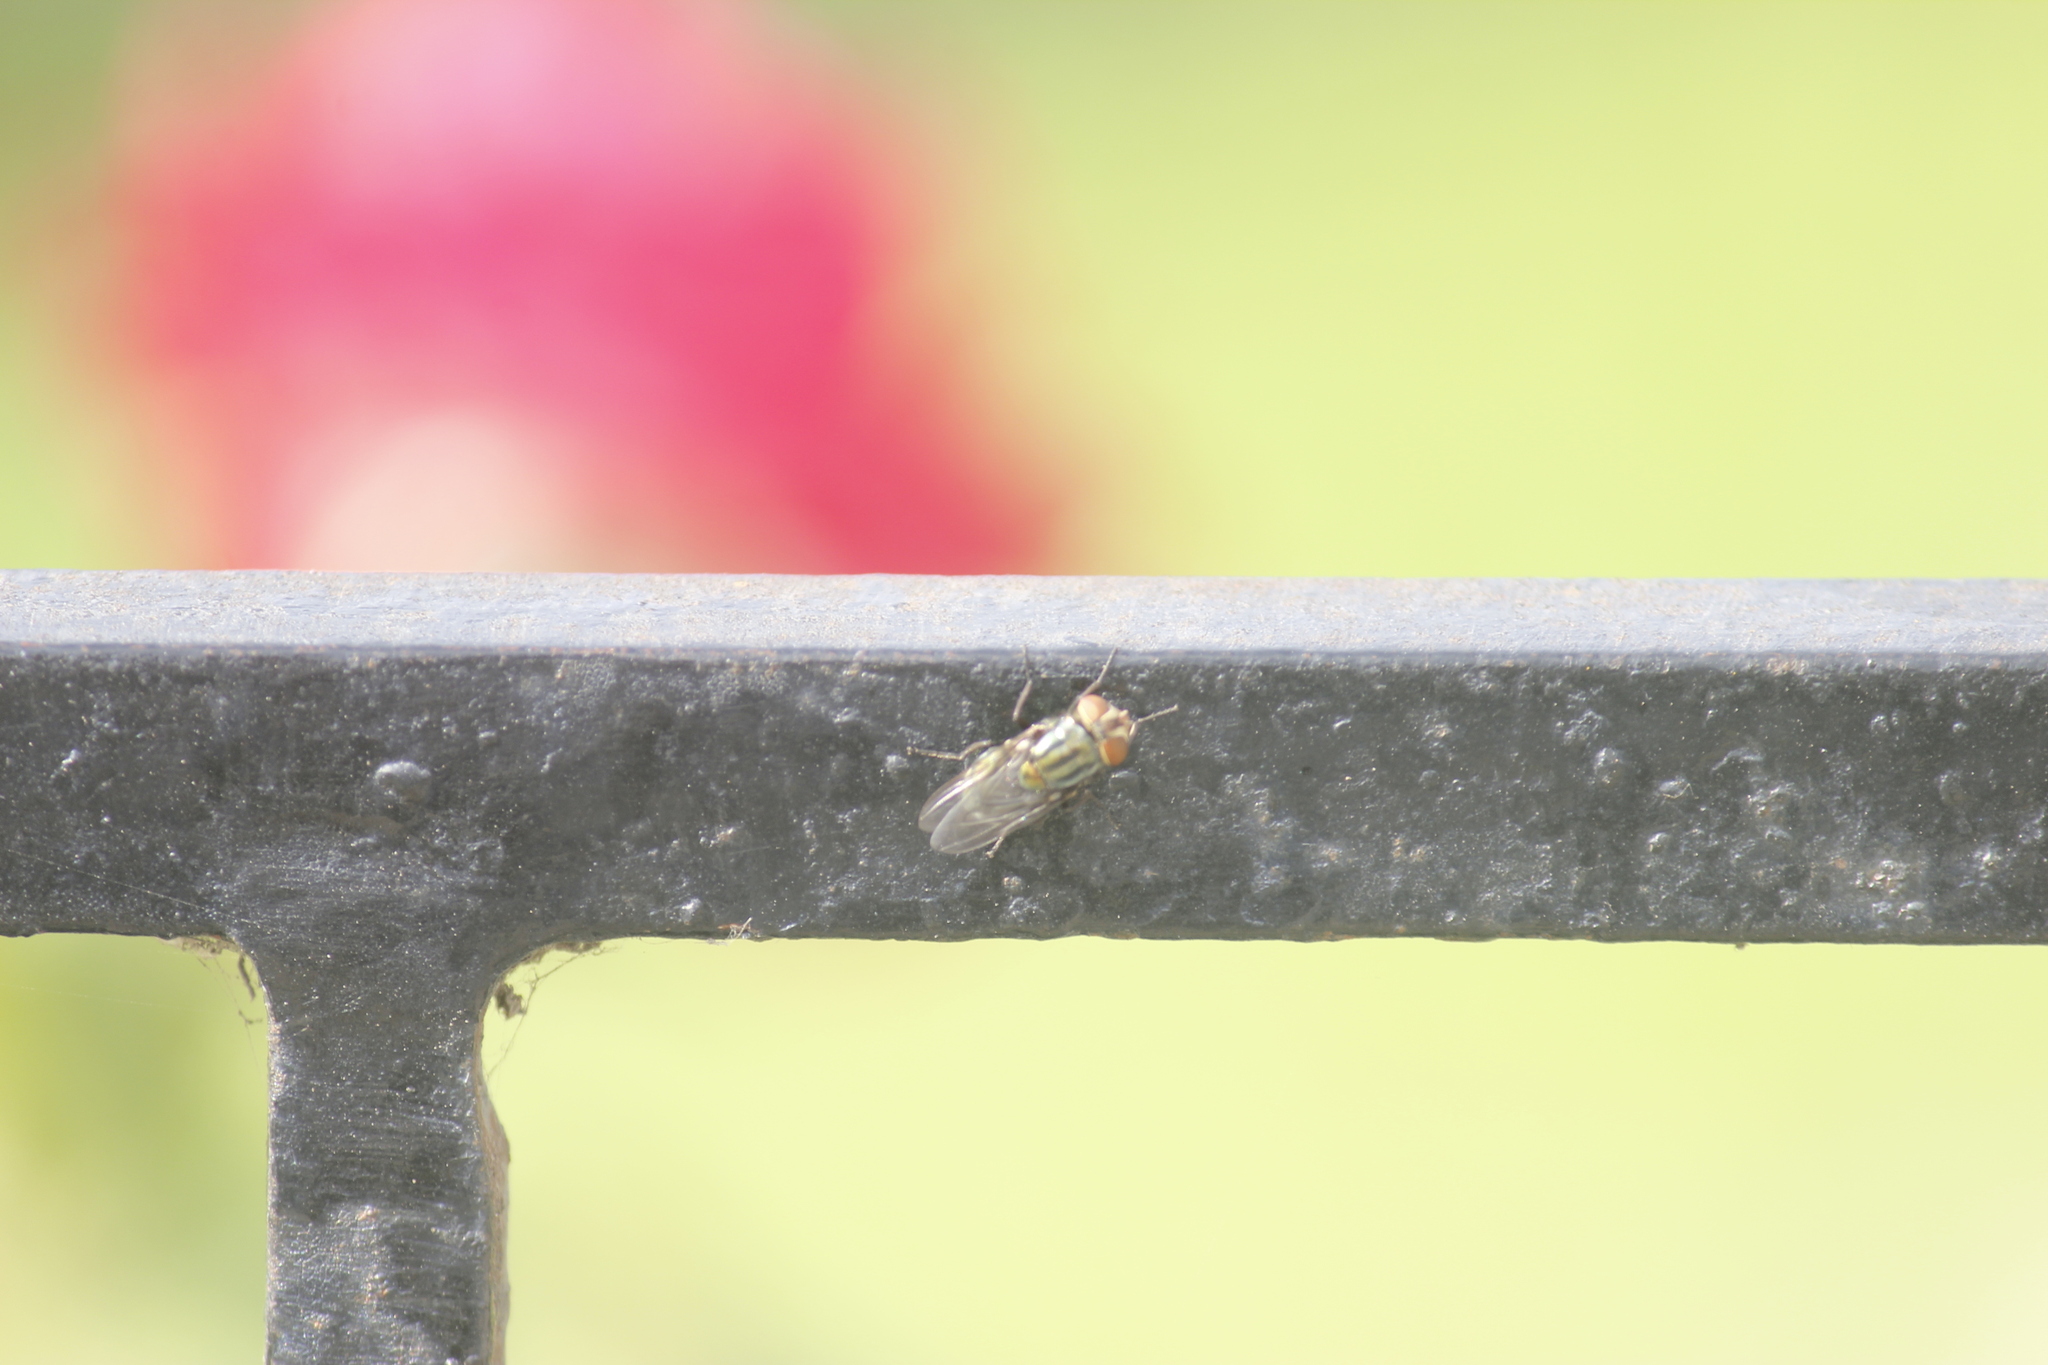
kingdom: Animalia
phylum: Arthropoda
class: Insecta
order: Diptera
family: Calliphoridae
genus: Cochliomyia
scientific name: Cochliomyia macellaria
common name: Secondary screwworm
